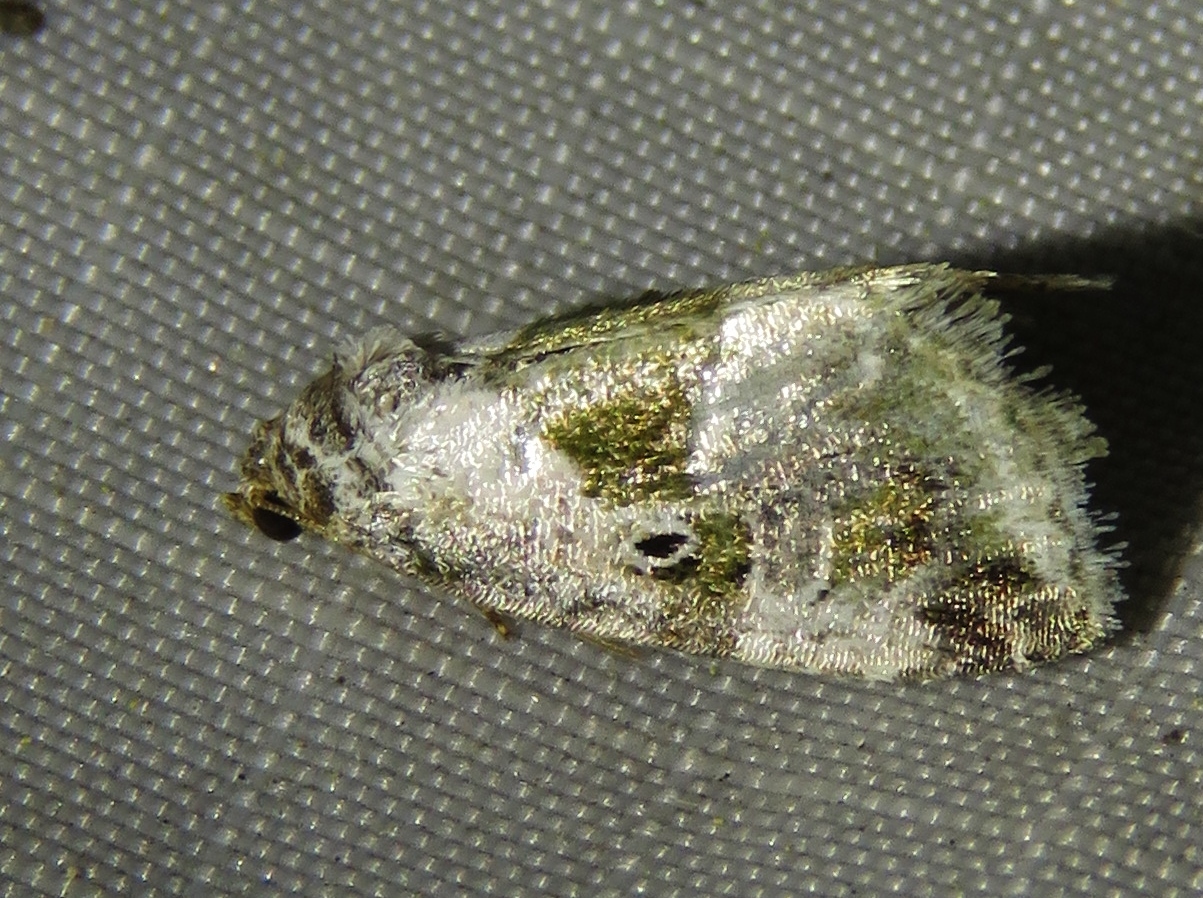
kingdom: Animalia
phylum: Arthropoda
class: Insecta
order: Lepidoptera
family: Noctuidae
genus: Maliattha
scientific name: Maliattha synochitis
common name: Black-dotted glyph
